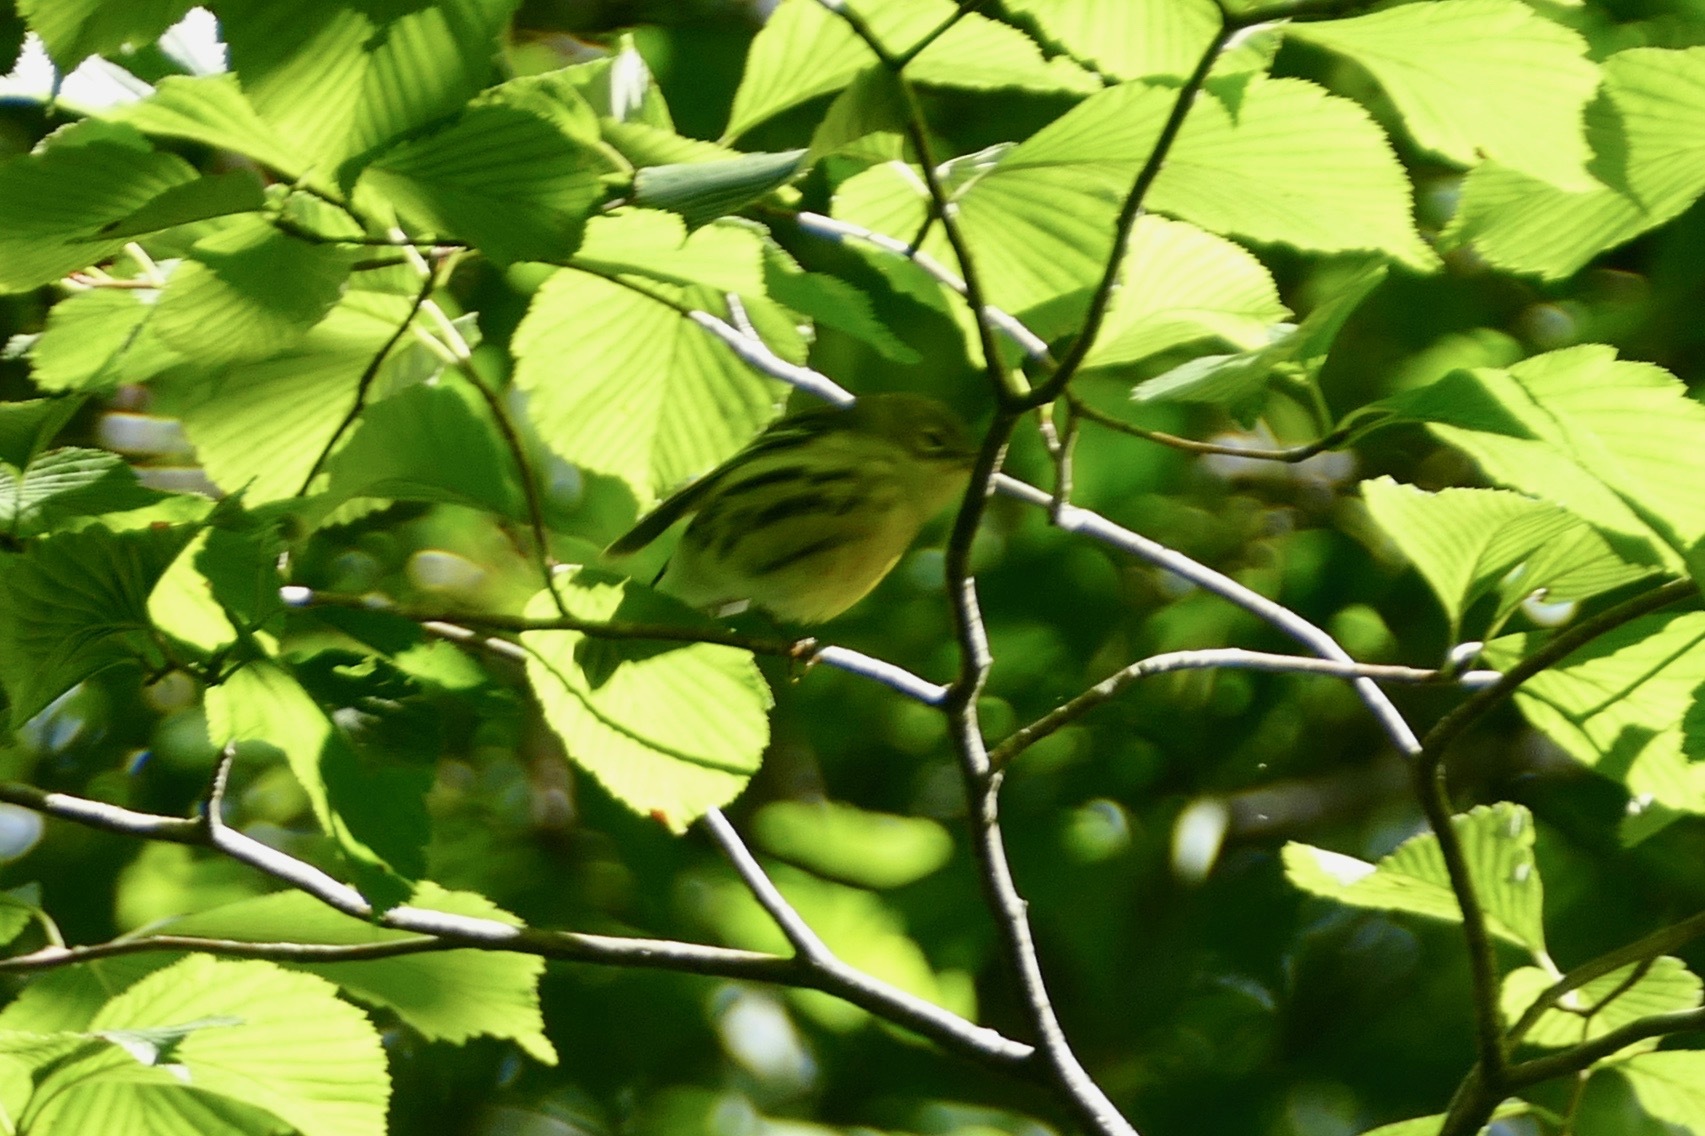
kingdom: Animalia
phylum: Chordata
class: Aves
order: Passeriformes
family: Parulidae
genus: Setophaga
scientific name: Setophaga discolor
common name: Prairie warbler
